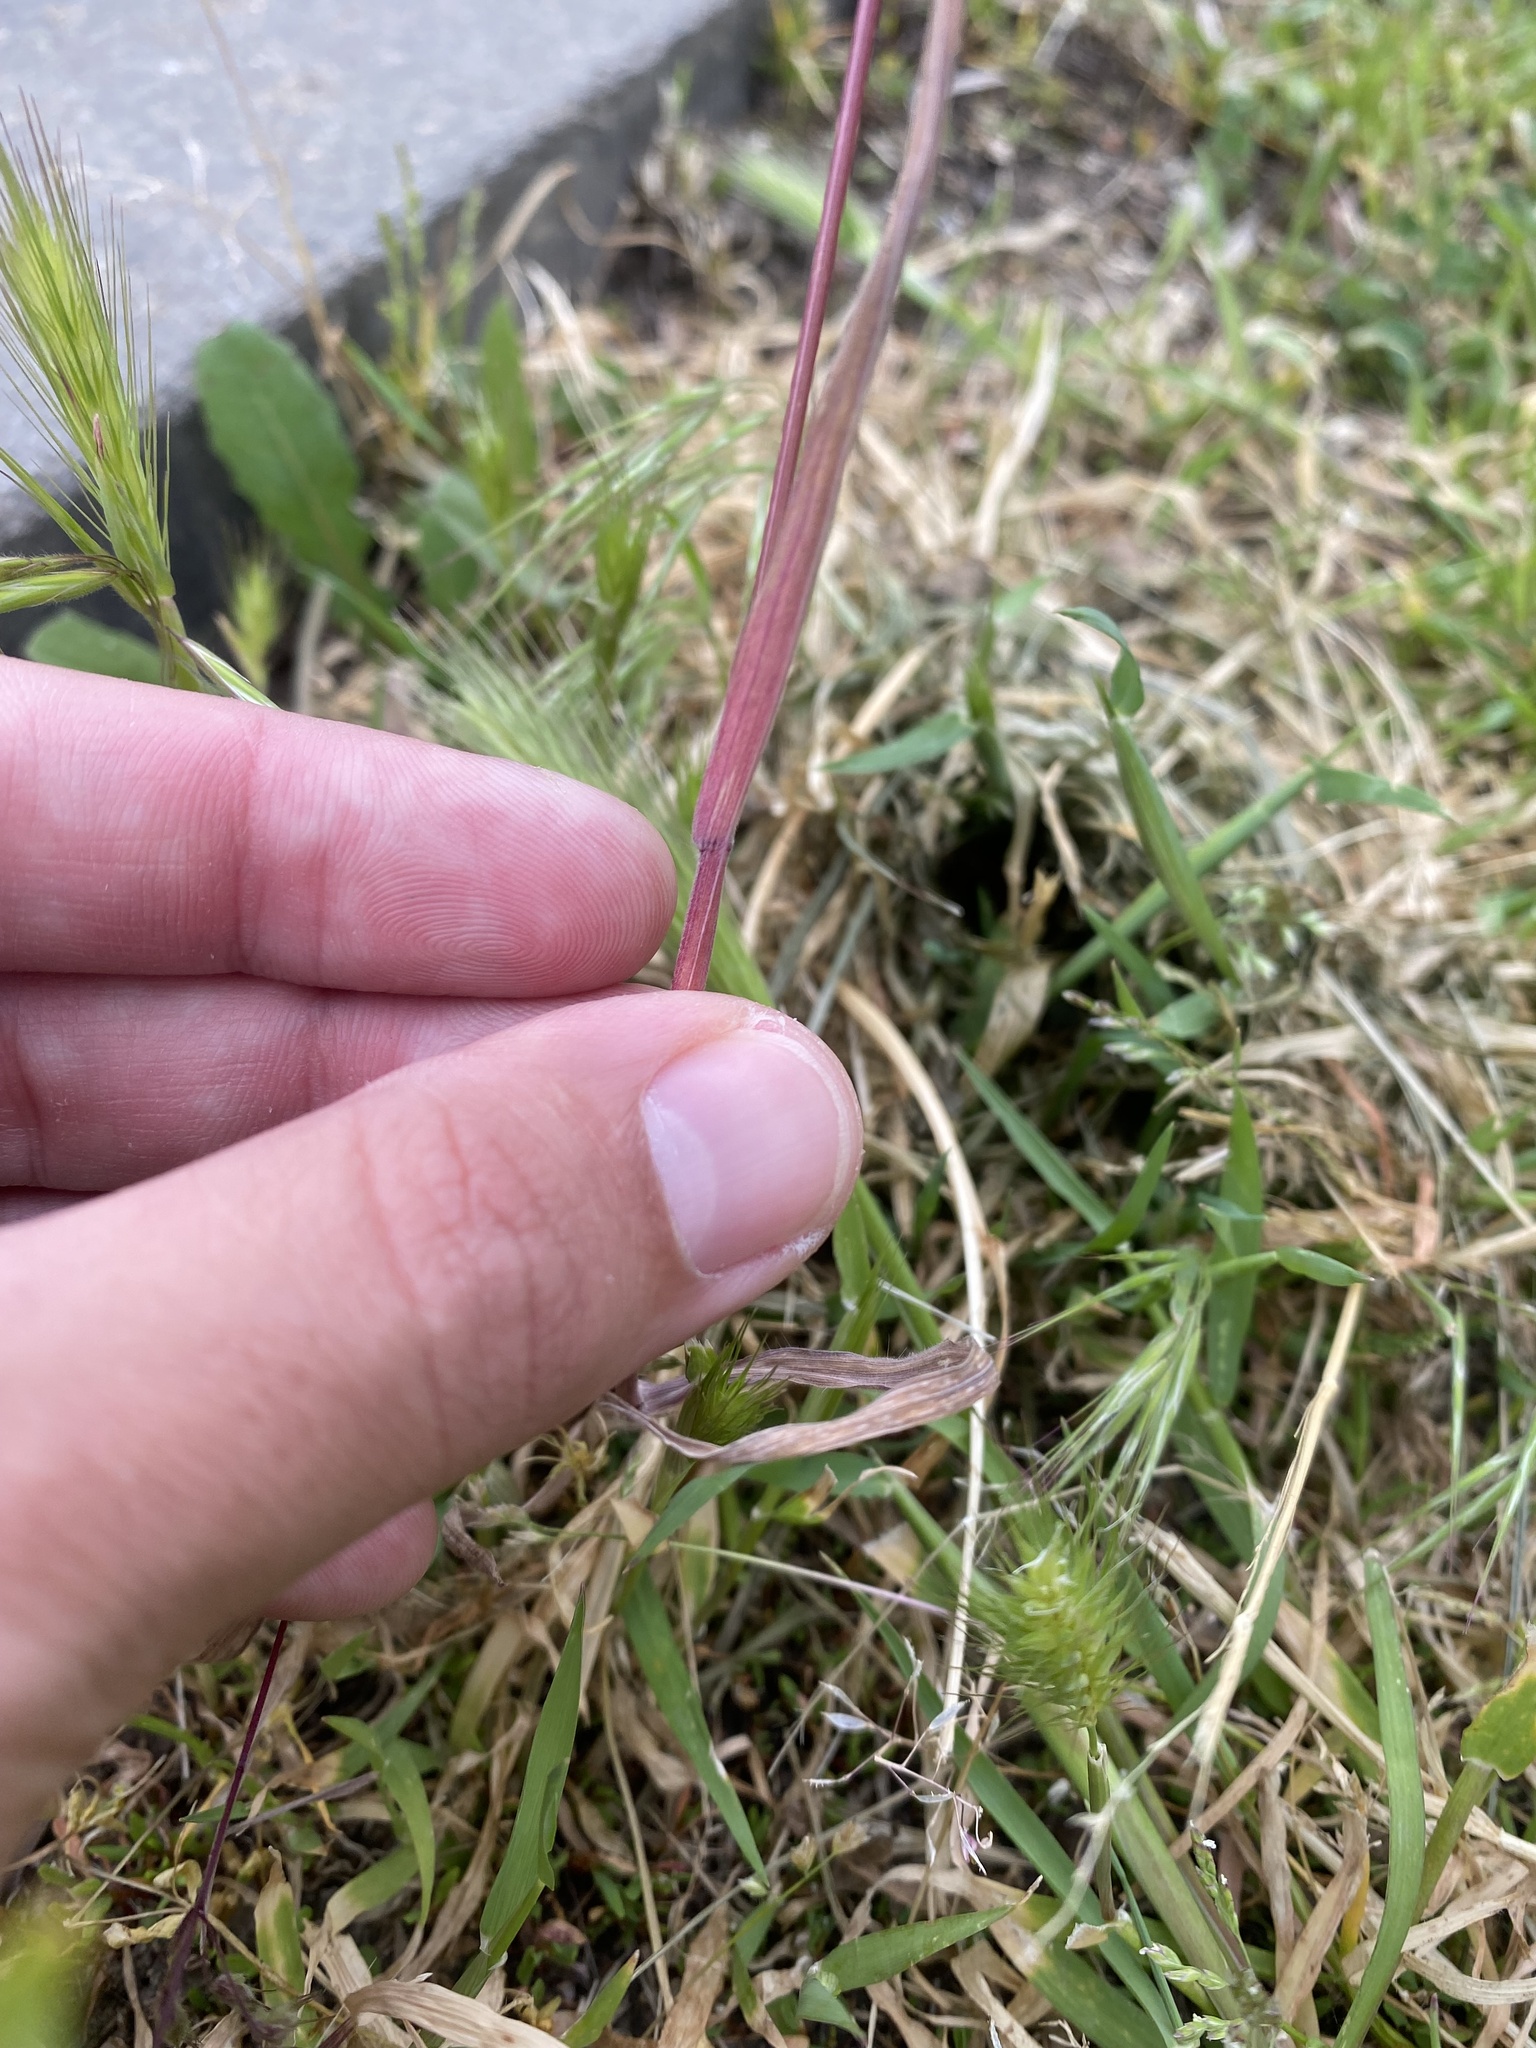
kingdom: Plantae
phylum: Tracheophyta
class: Liliopsida
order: Poales
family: Poaceae
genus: Bromus
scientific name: Bromus tectorum
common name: Cheatgrass
